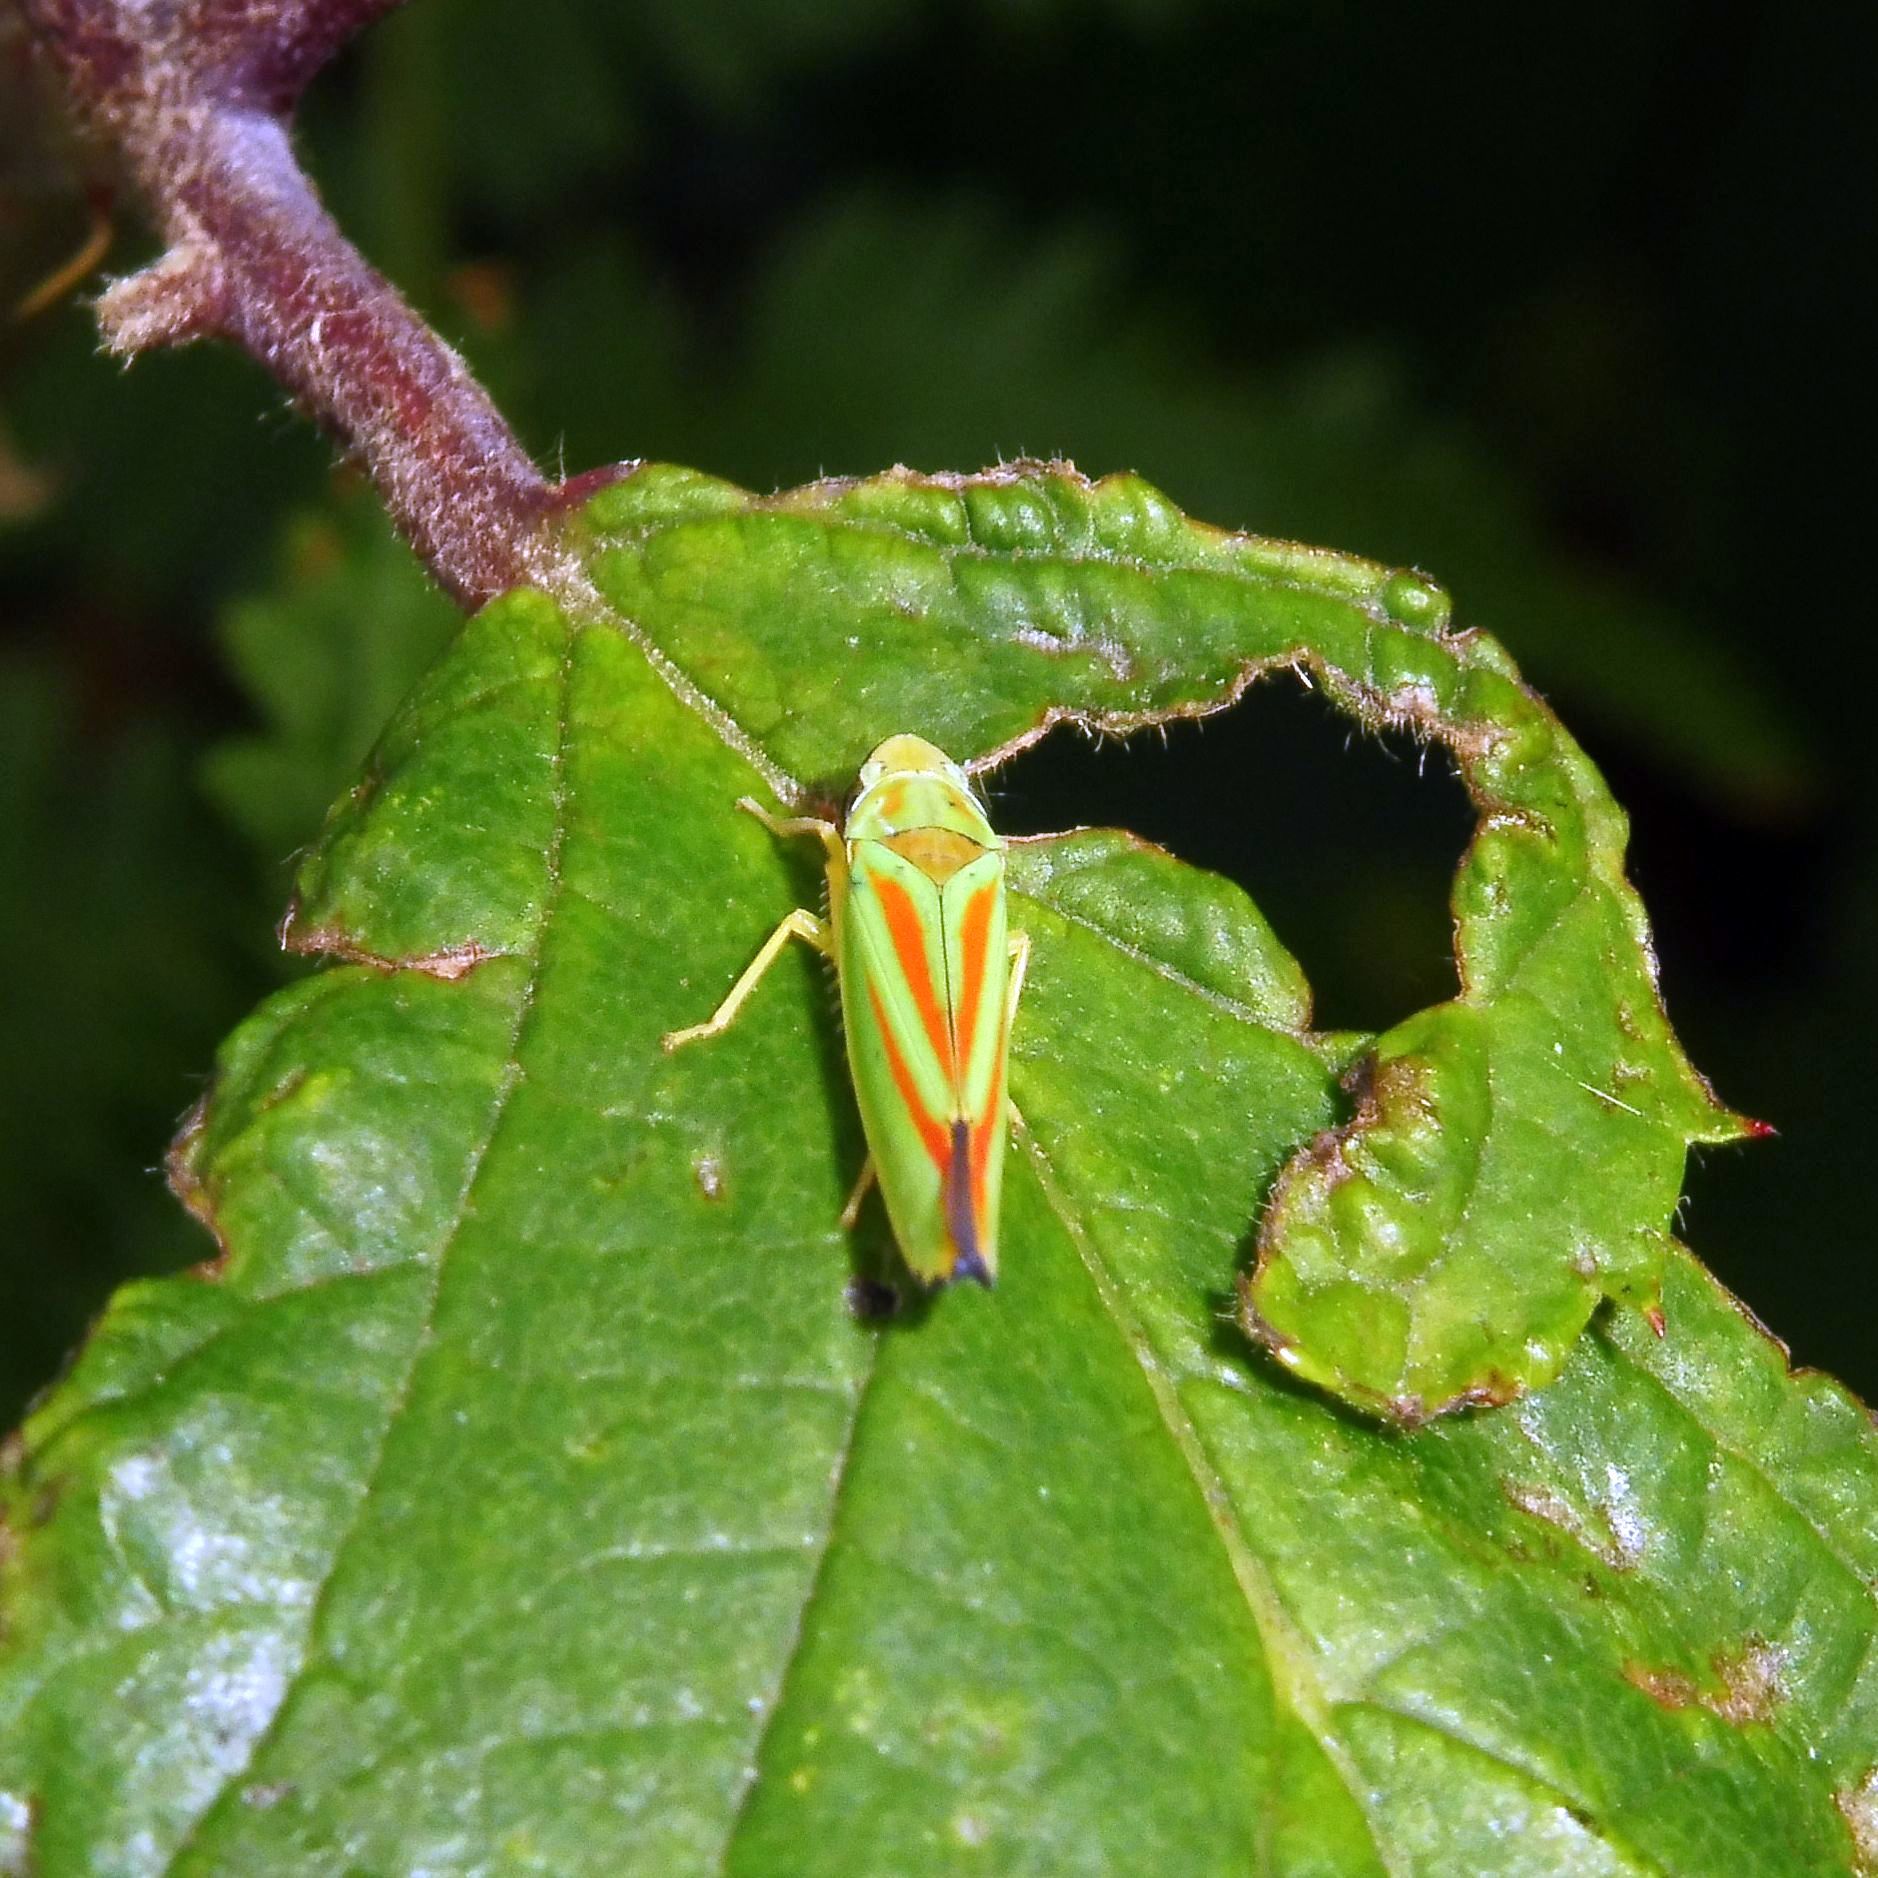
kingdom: Animalia
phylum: Arthropoda
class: Insecta
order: Hemiptera
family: Cicadellidae
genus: Graphocephala
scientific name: Graphocephala fennahi
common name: Rhododendron leafhopper
